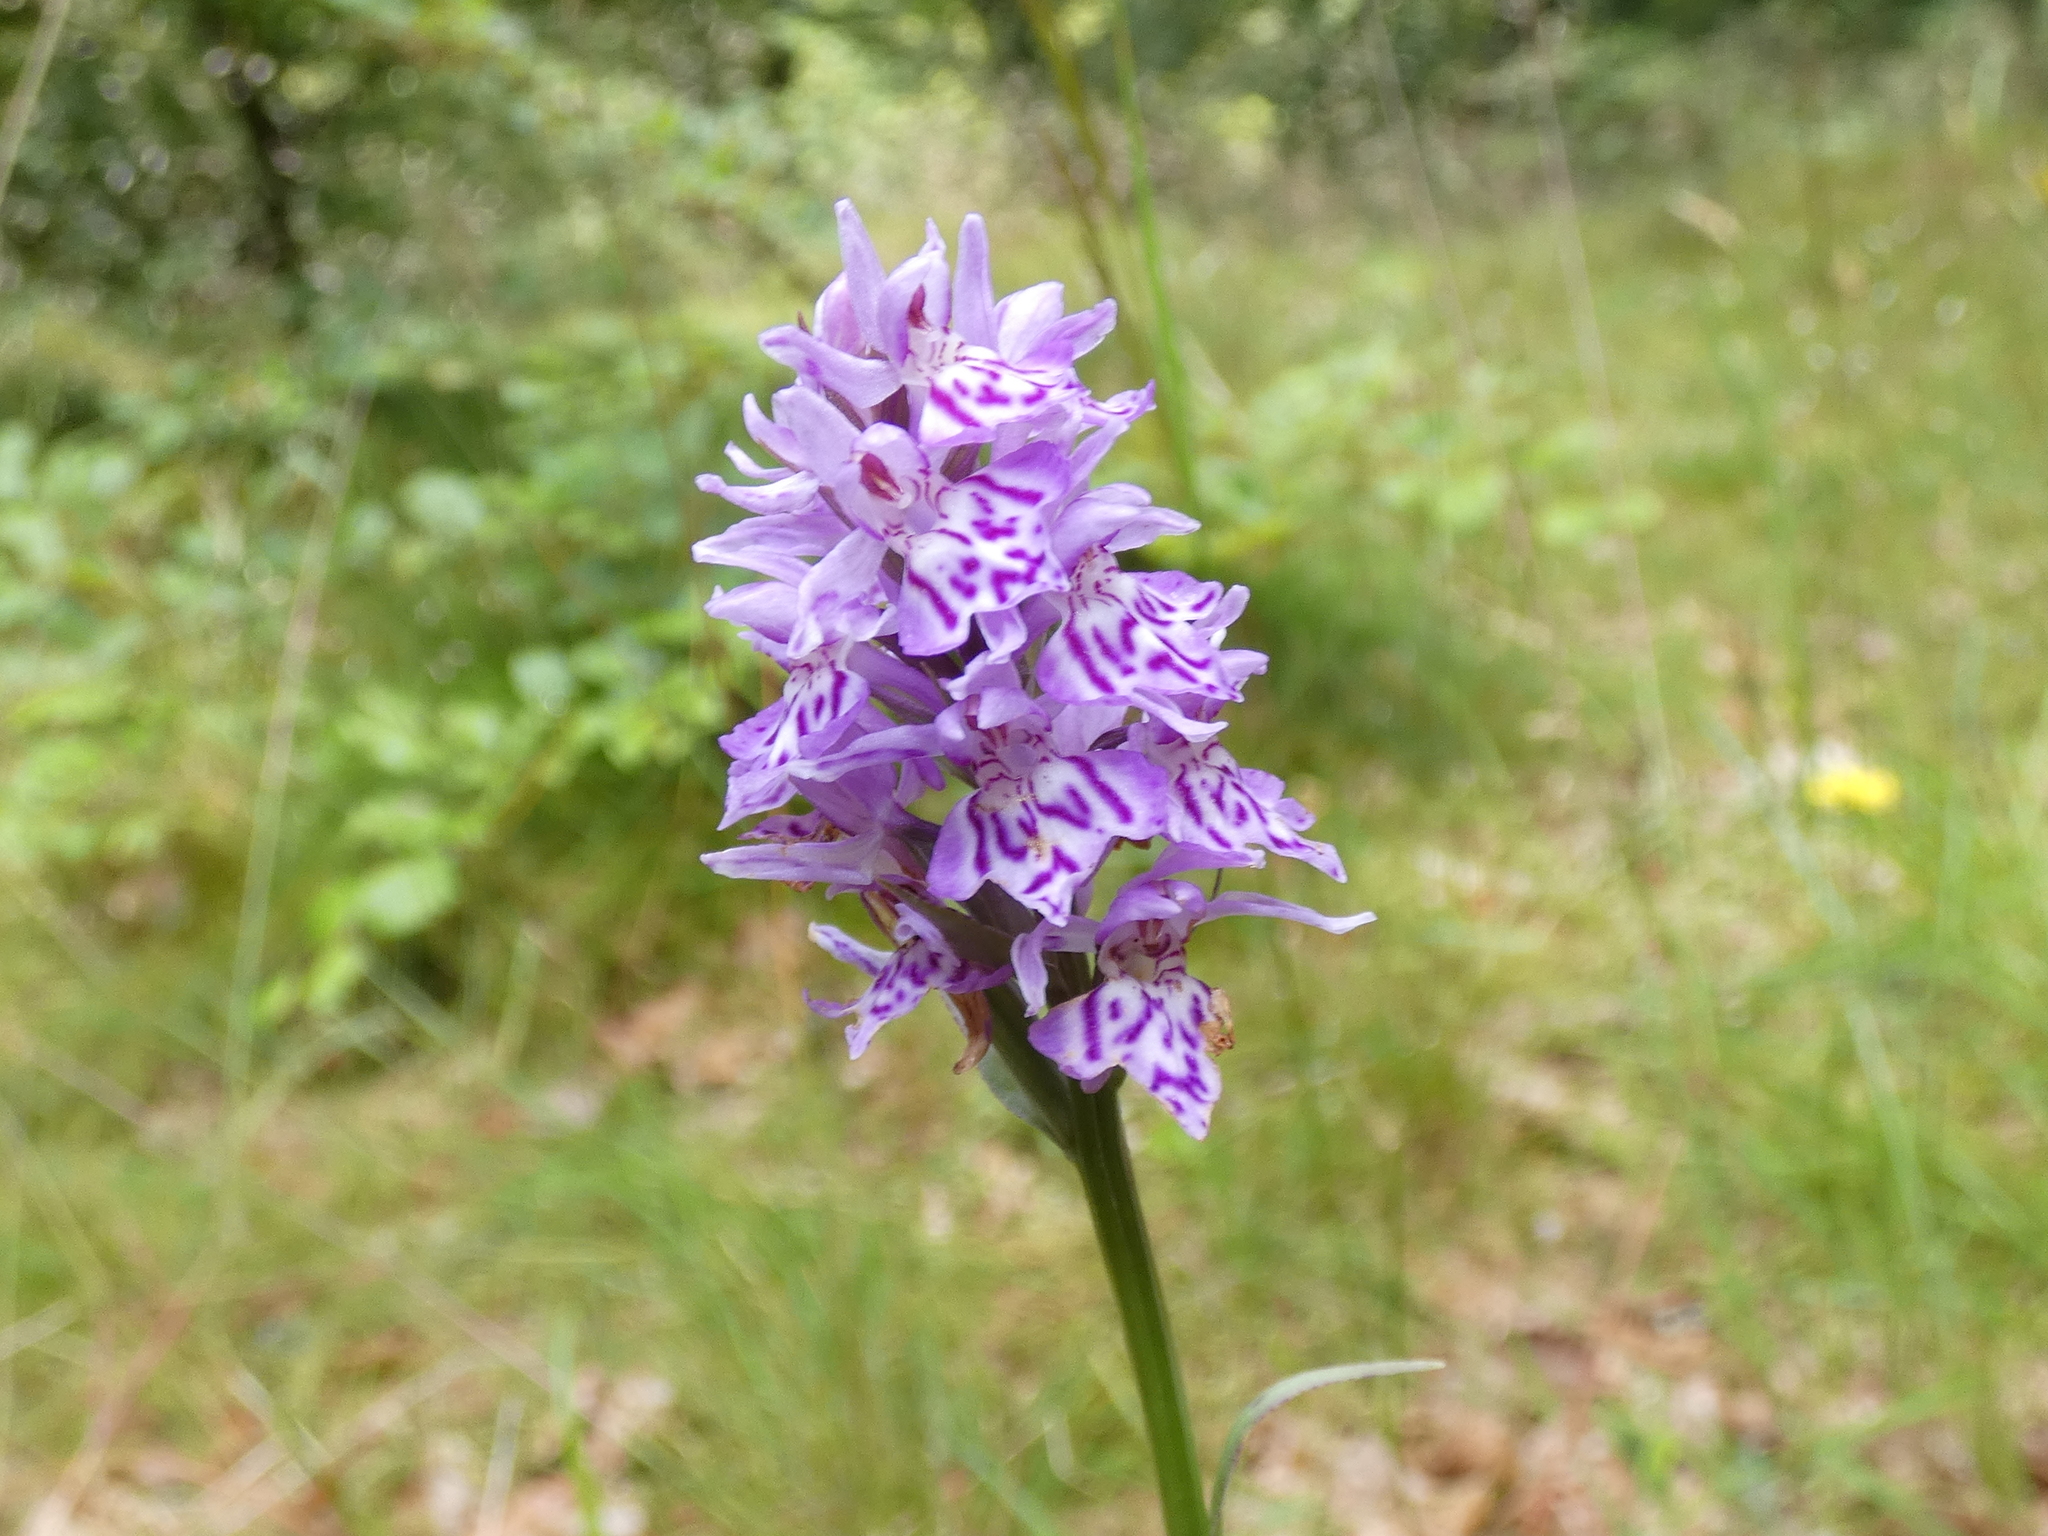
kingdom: Plantae
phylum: Tracheophyta
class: Liliopsida
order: Asparagales
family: Orchidaceae
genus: Dactylorhiza
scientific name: Dactylorhiza maculata
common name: Heath spotted-orchid
